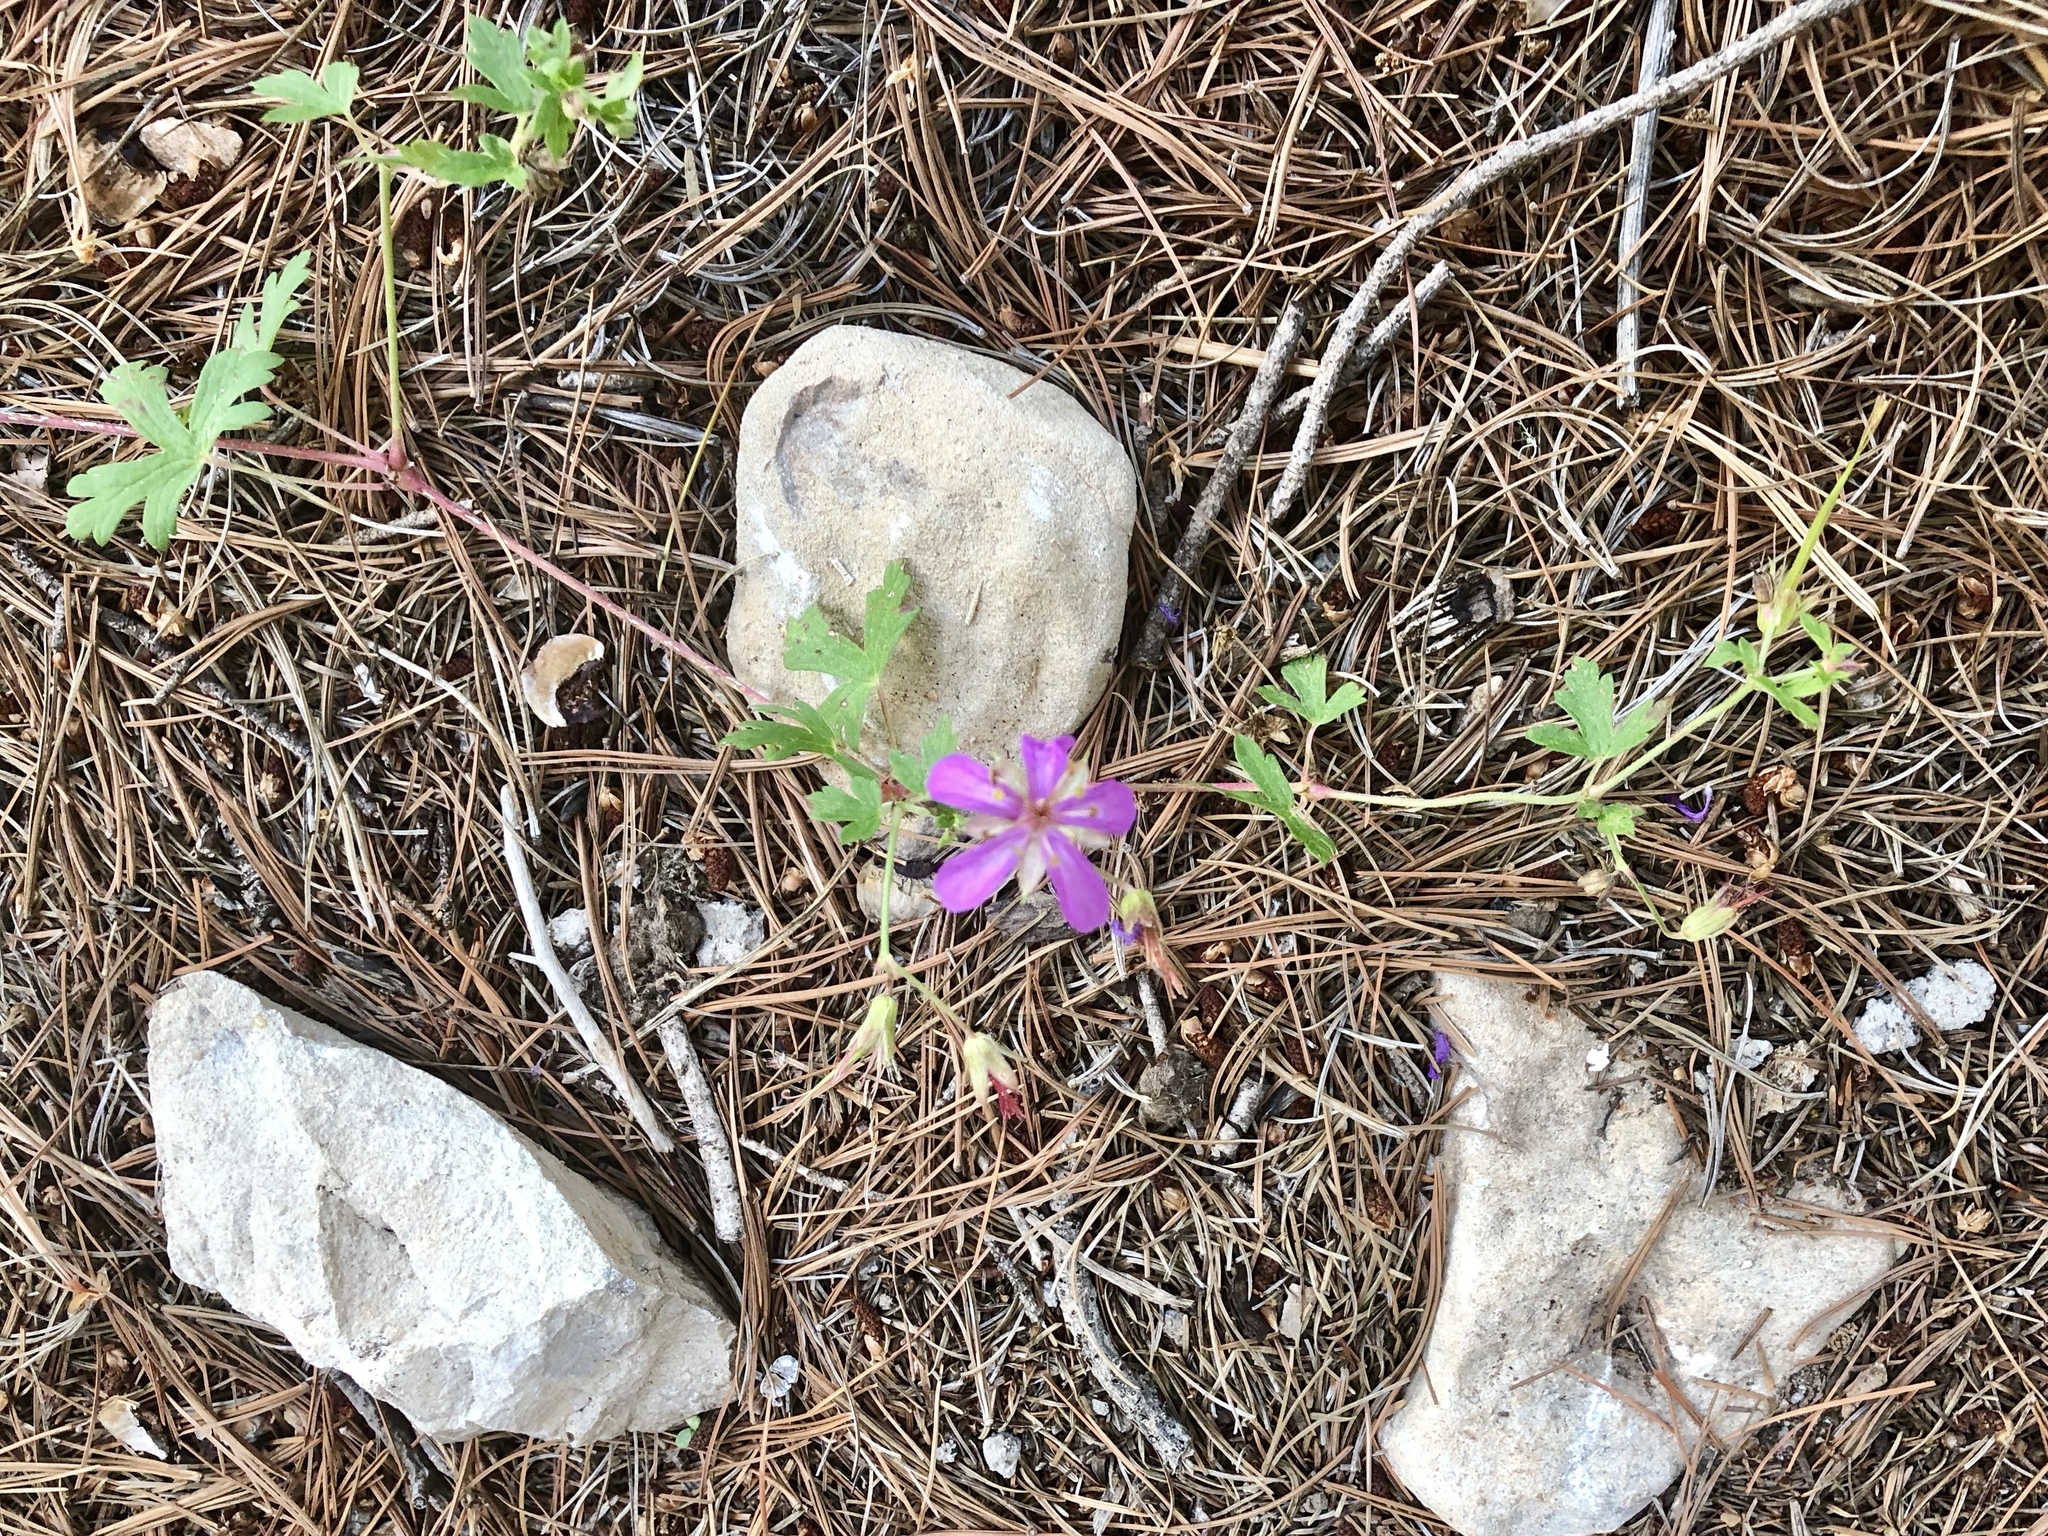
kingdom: Plantae
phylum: Tracheophyta
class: Magnoliopsida
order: Geraniales
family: Geraniaceae
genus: Geranium
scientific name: Geranium caespitosum
